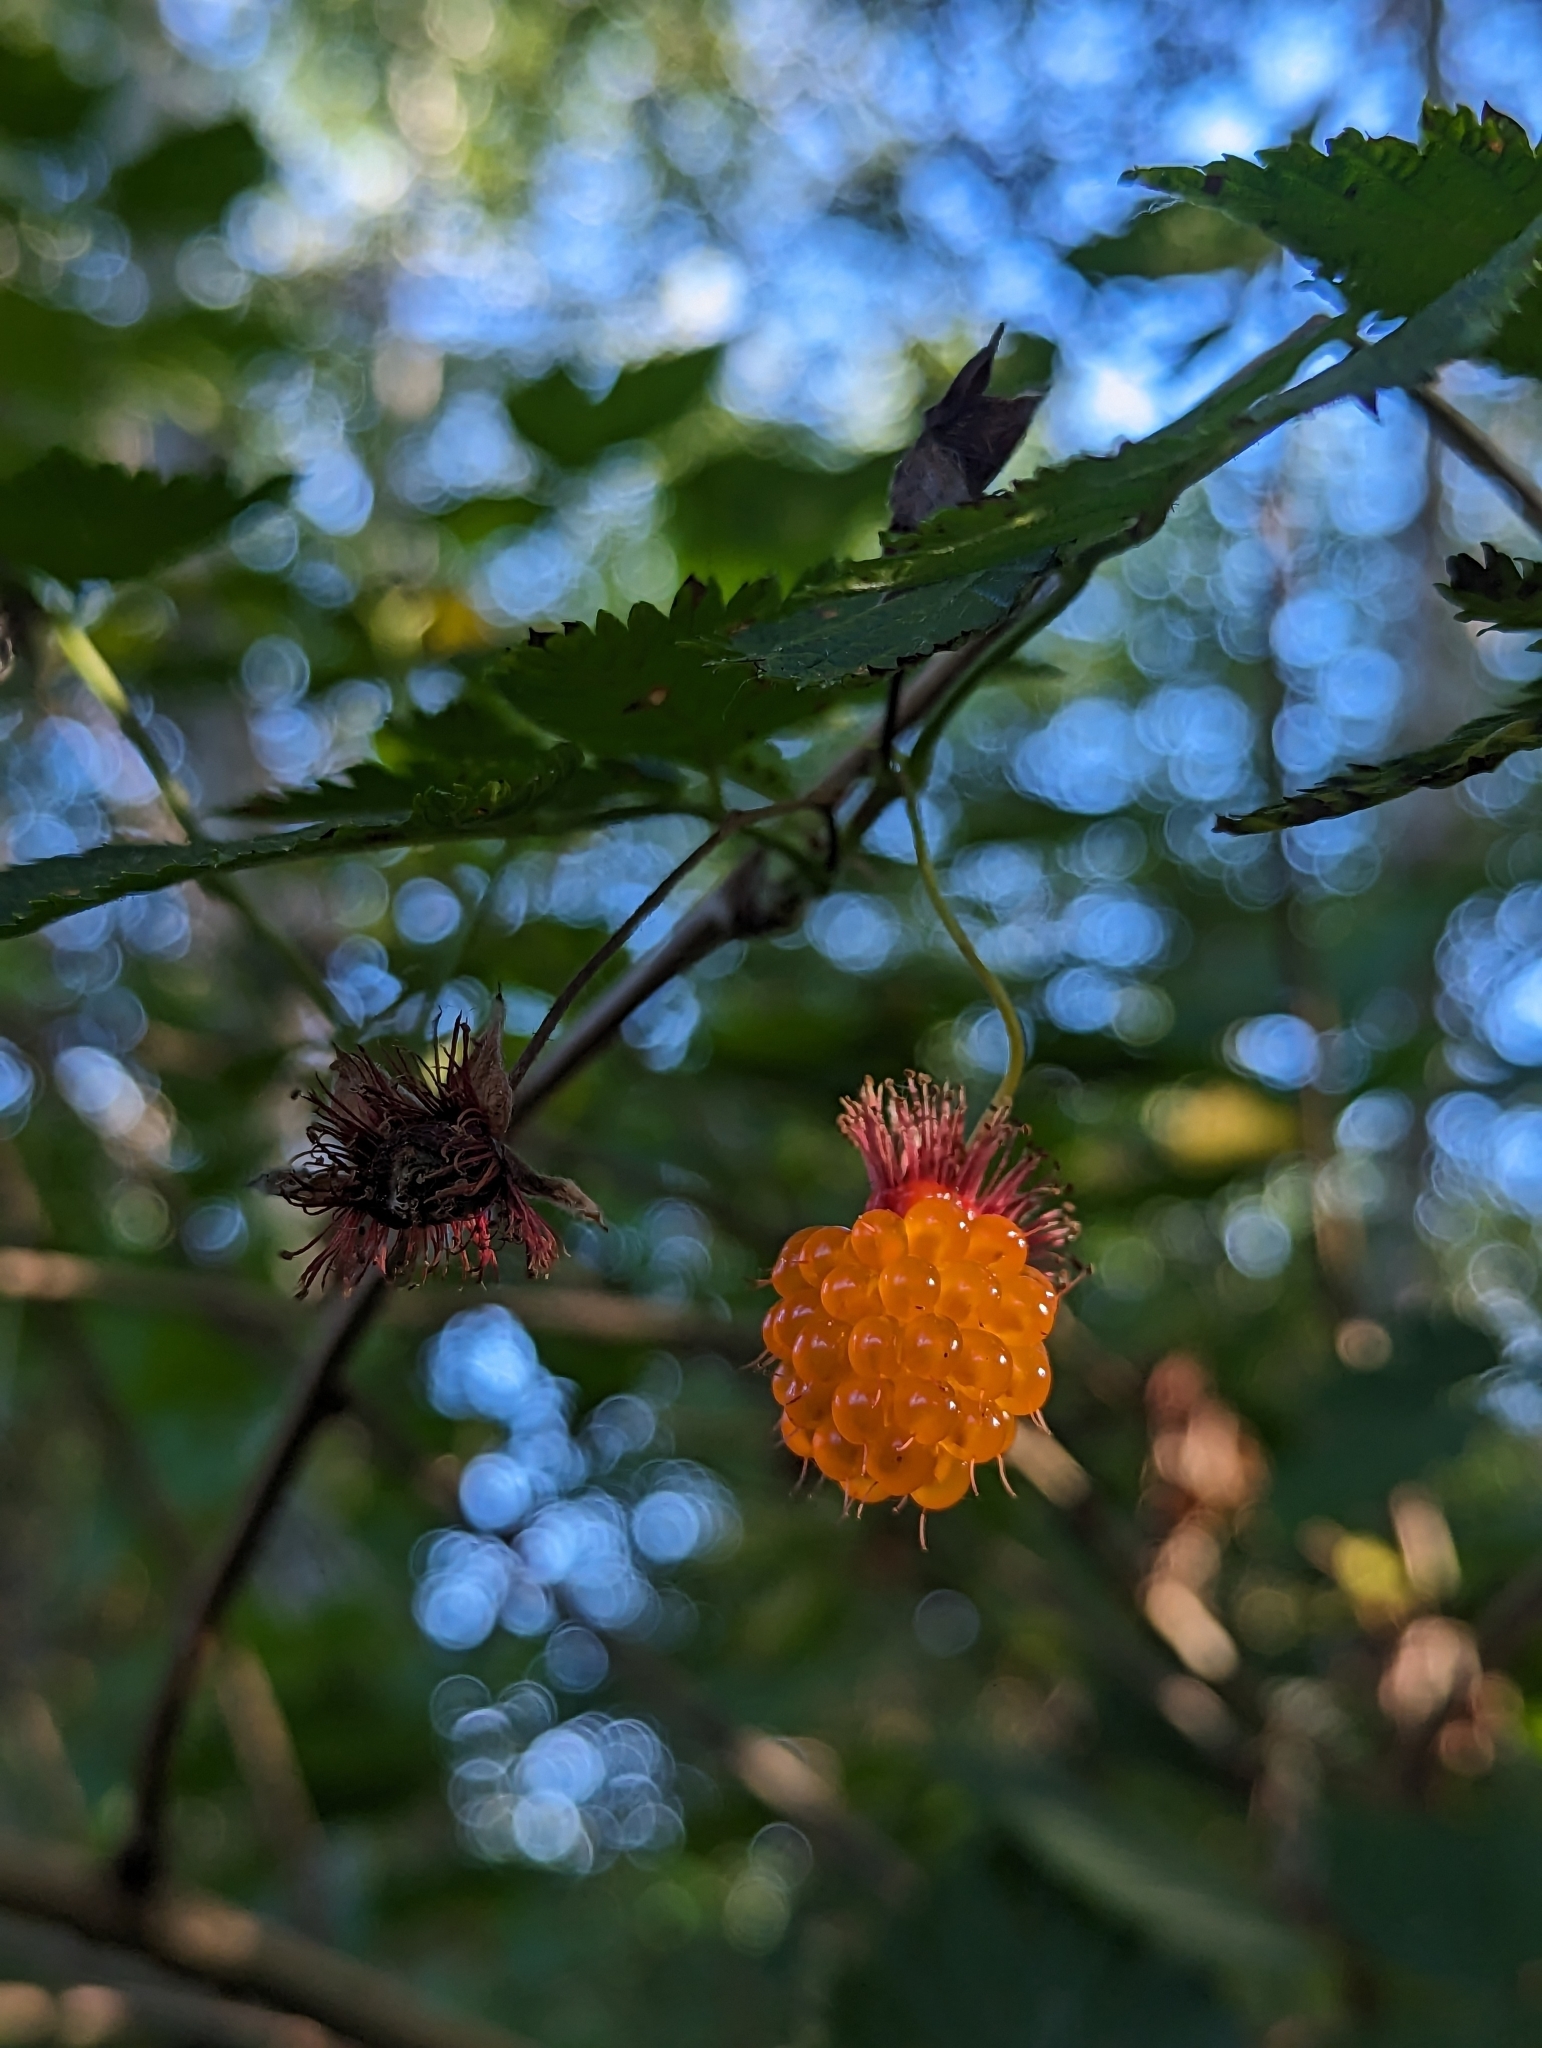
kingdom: Plantae
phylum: Tracheophyta
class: Magnoliopsida
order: Rosales
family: Rosaceae
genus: Rubus
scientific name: Rubus spectabilis
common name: Salmonberry
